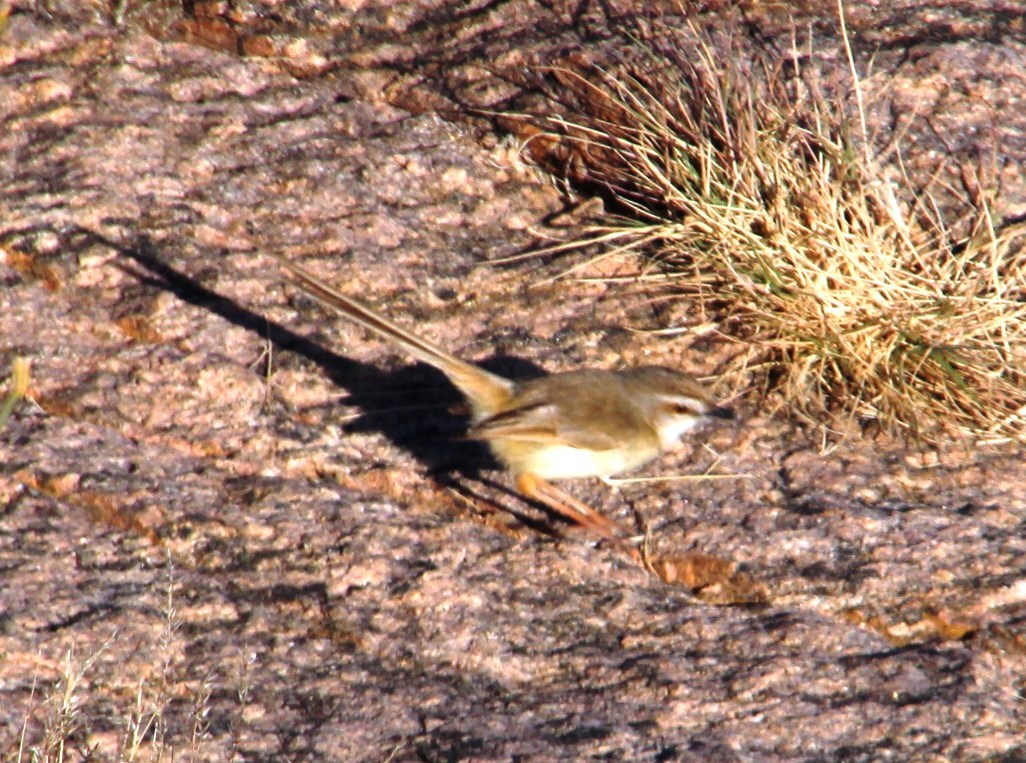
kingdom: Animalia
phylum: Chordata
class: Aves
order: Passeriformes
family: Cisticolidae
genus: Prinia
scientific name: Prinia flavicans
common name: Black-chested prinia
